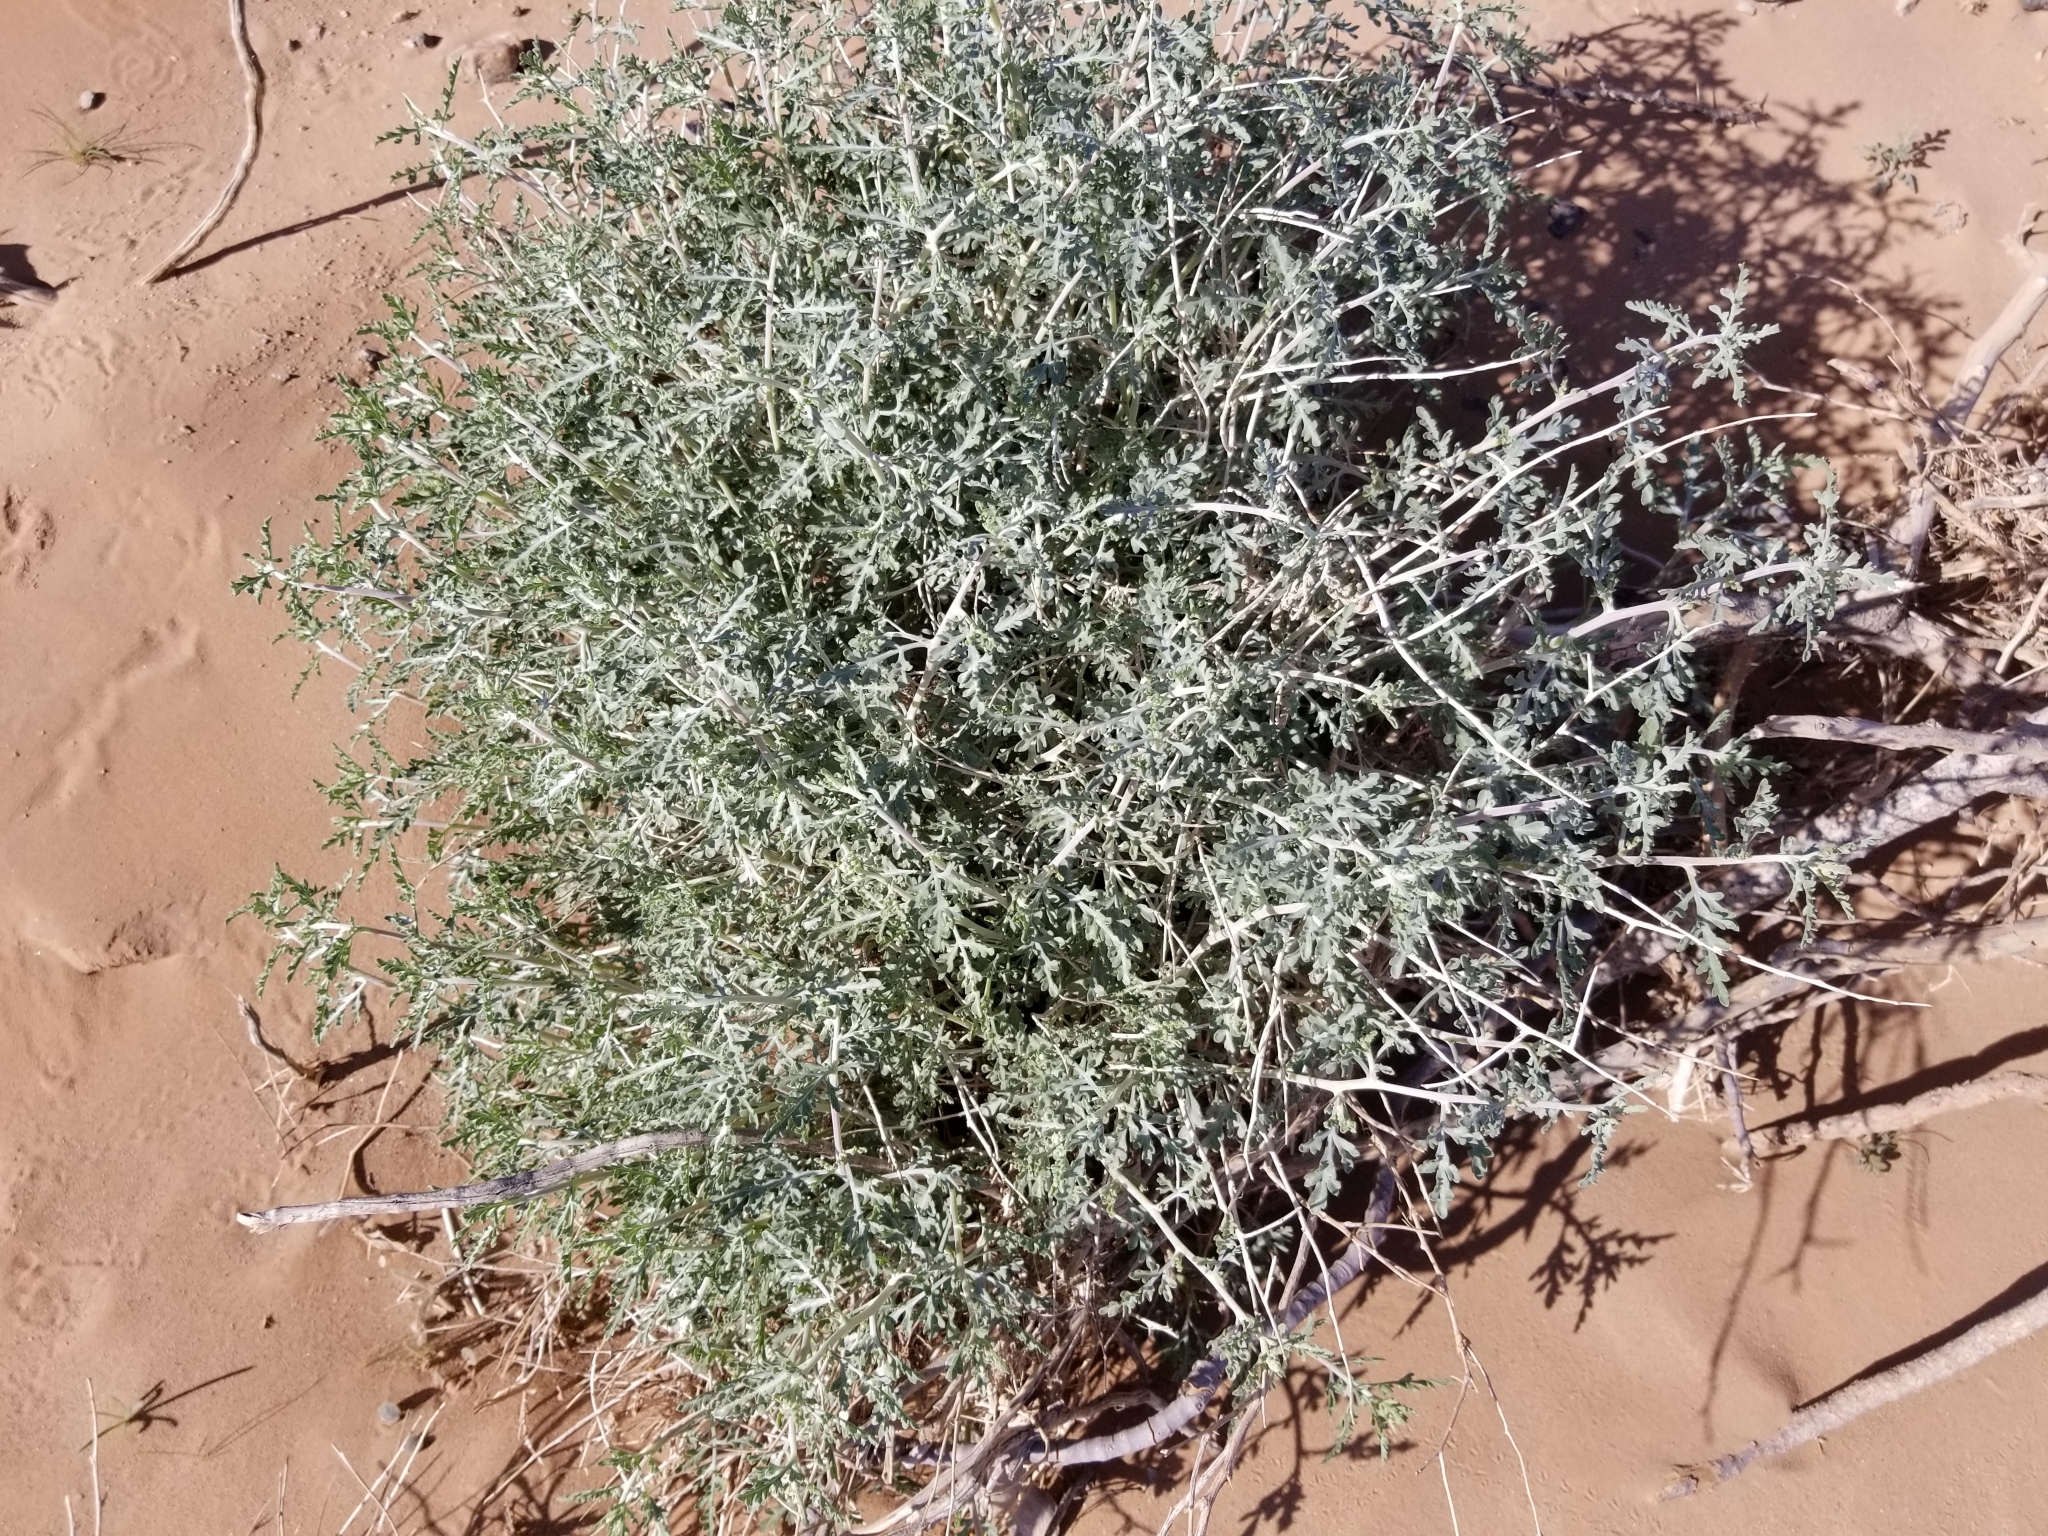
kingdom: Plantae
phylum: Tracheophyta
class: Magnoliopsida
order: Asterales
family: Asteraceae
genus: Ambrosia
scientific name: Ambrosia dumosa
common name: Bur-sage
